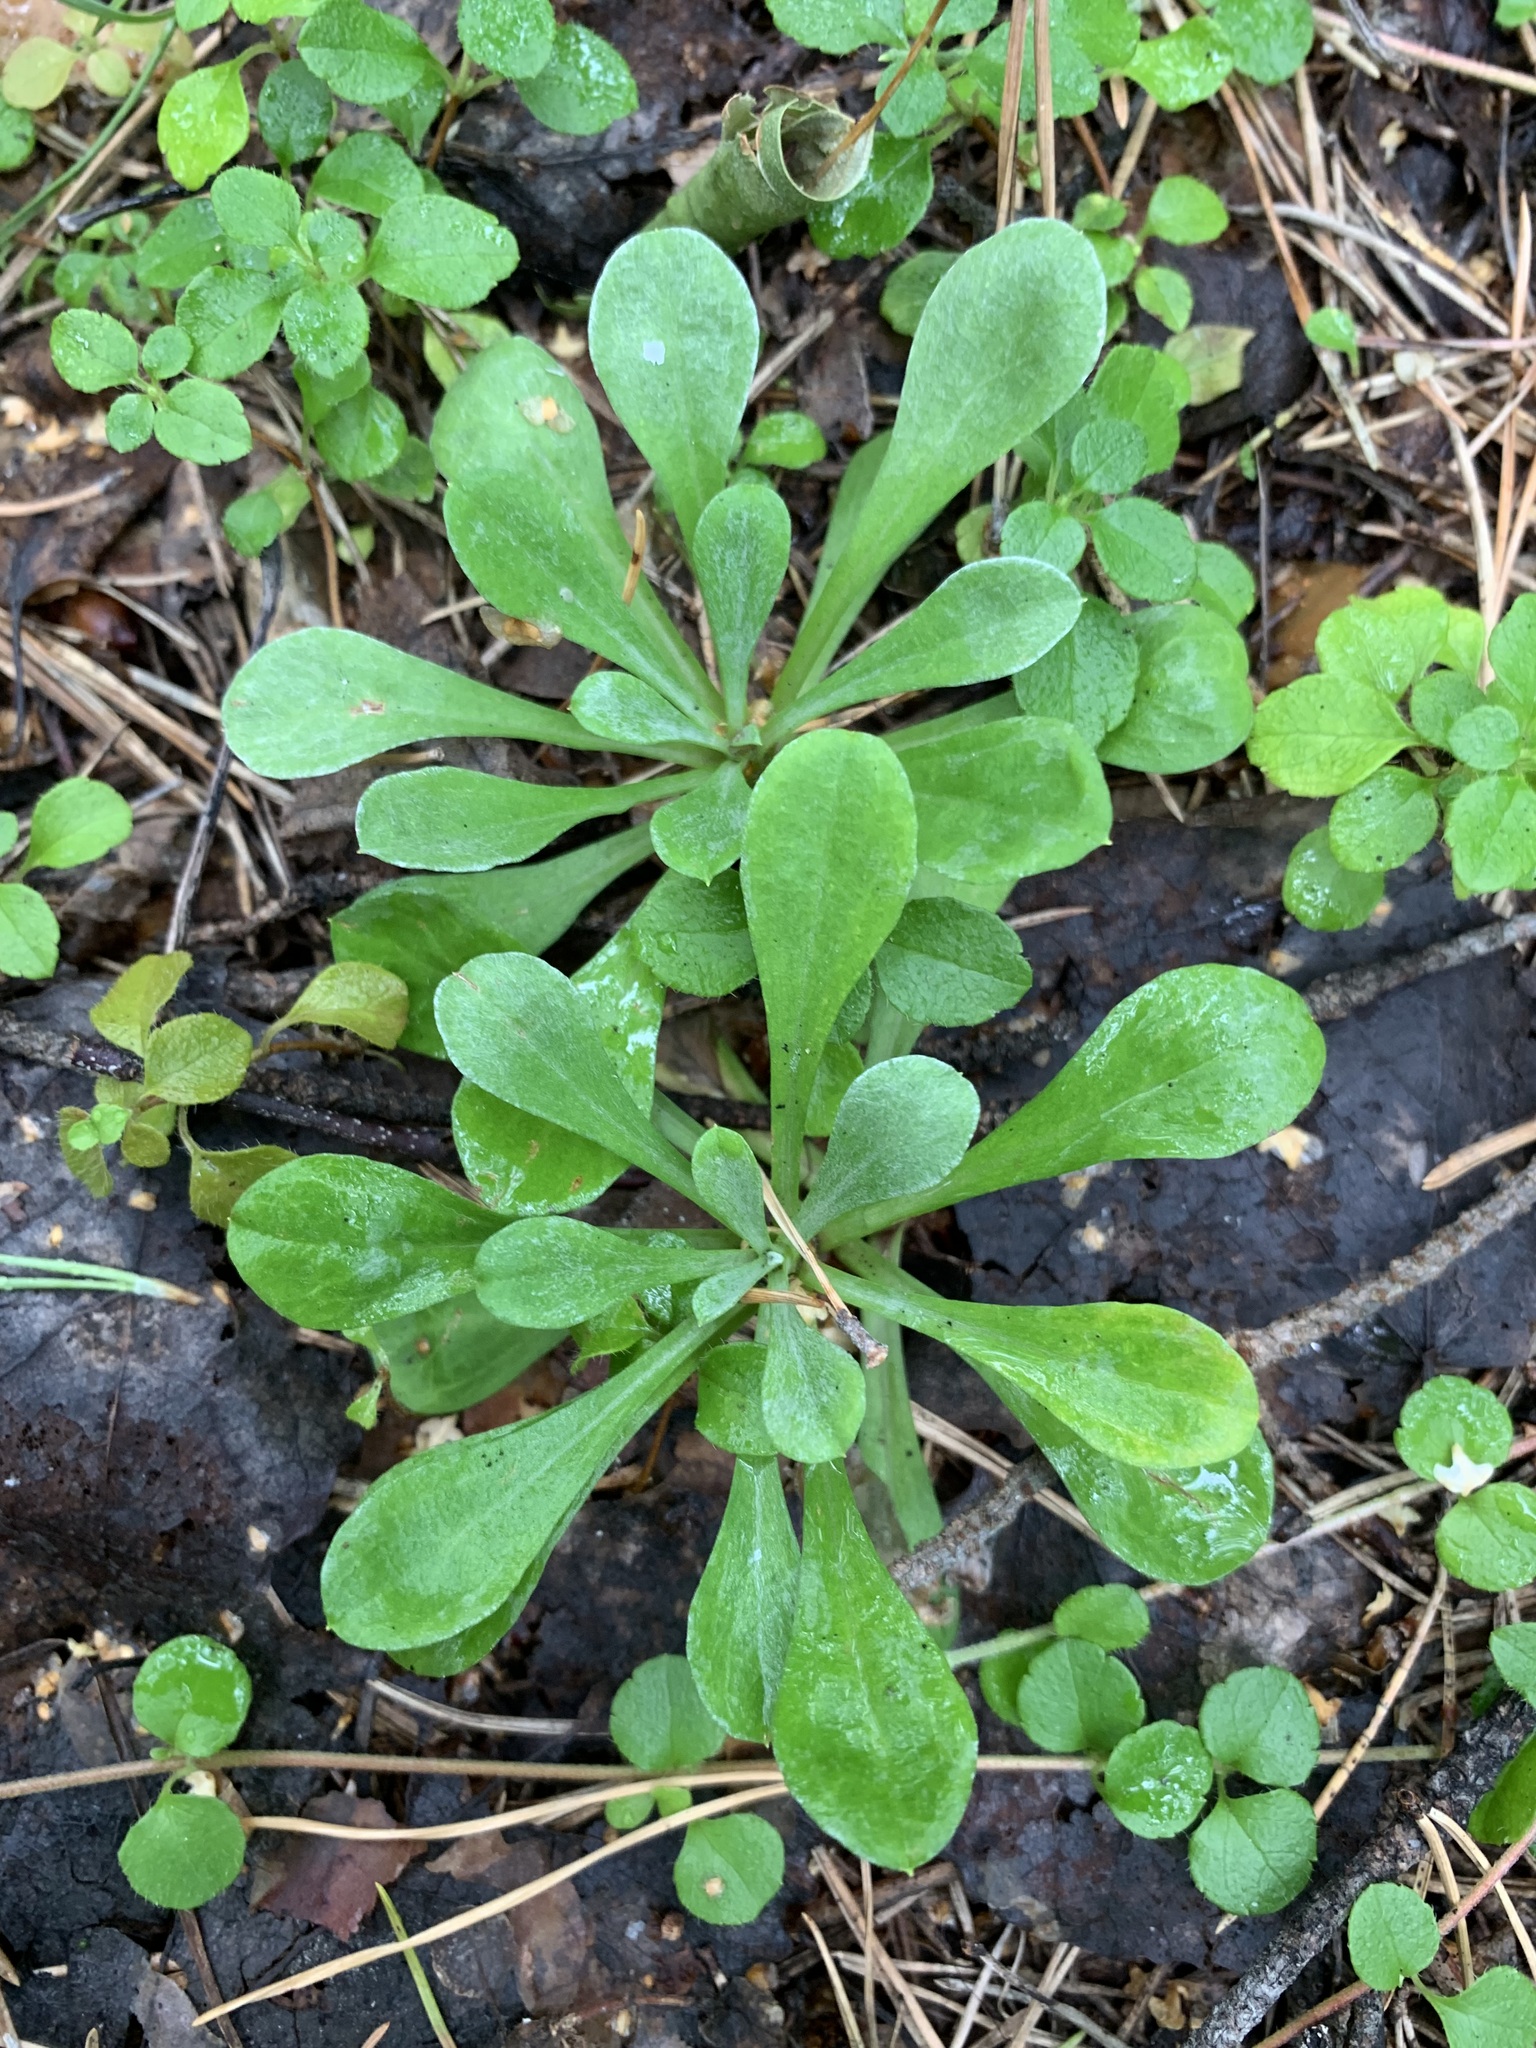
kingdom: Plantae
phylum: Tracheophyta
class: Magnoliopsida
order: Asterales
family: Asteraceae
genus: Antennaria
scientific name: Antennaria dioica
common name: Mountain everlasting
